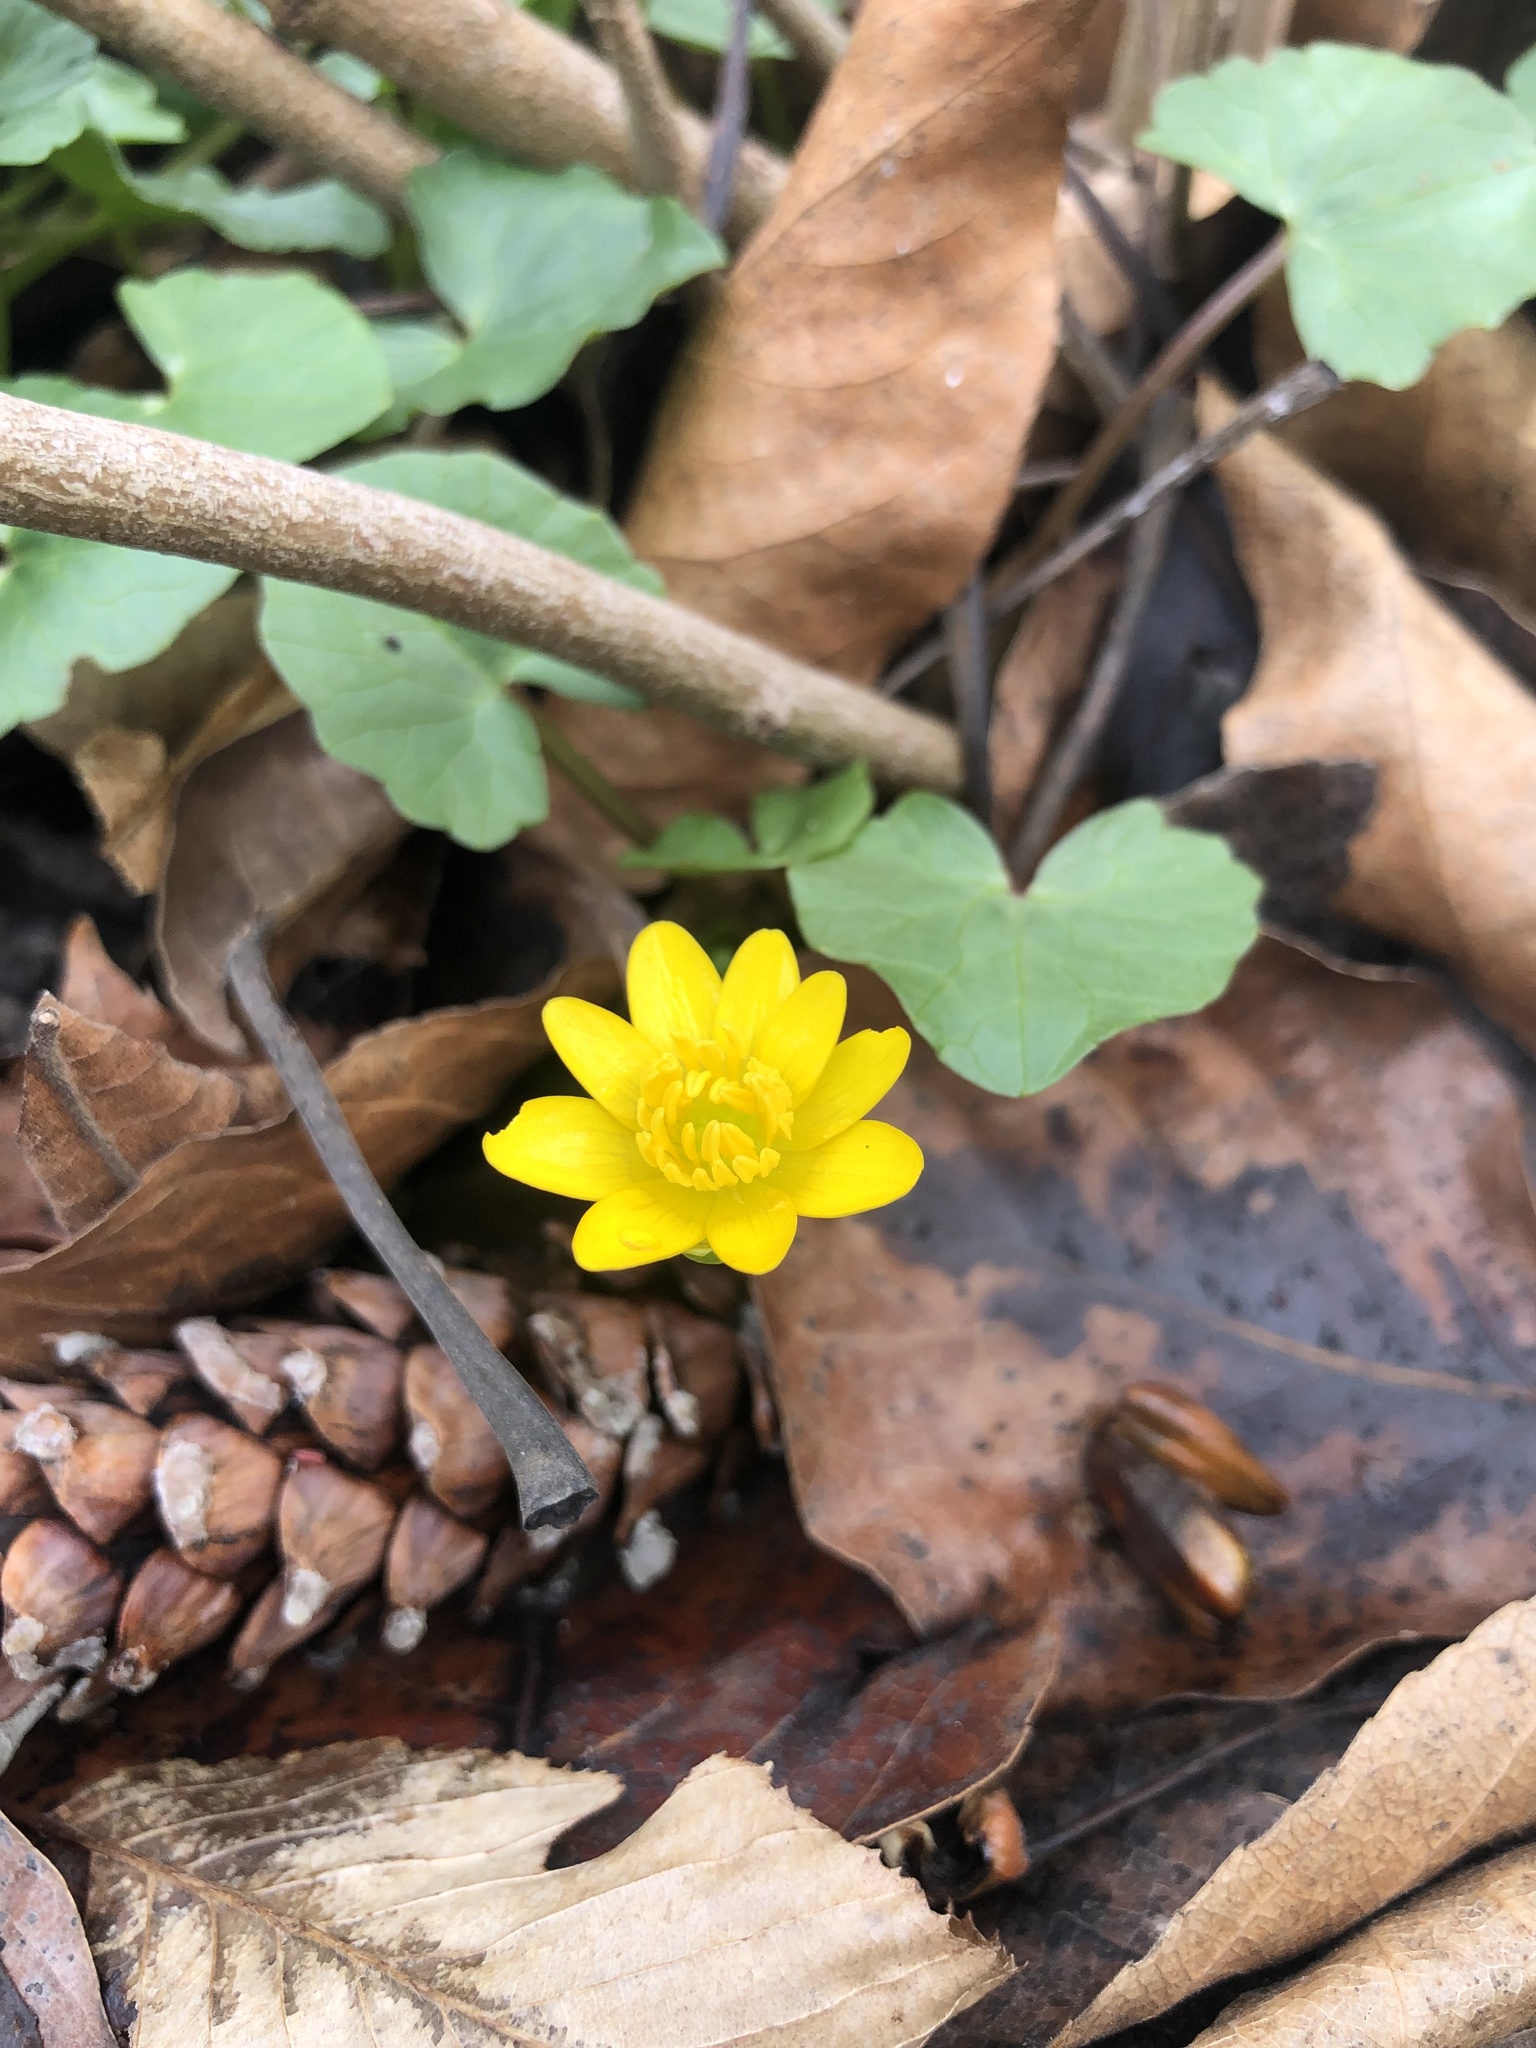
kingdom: Plantae
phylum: Tracheophyta
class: Magnoliopsida
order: Ranunculales
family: Ranunculaceae
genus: Ficaria
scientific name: Ficaria verna
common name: Lesser celandine
